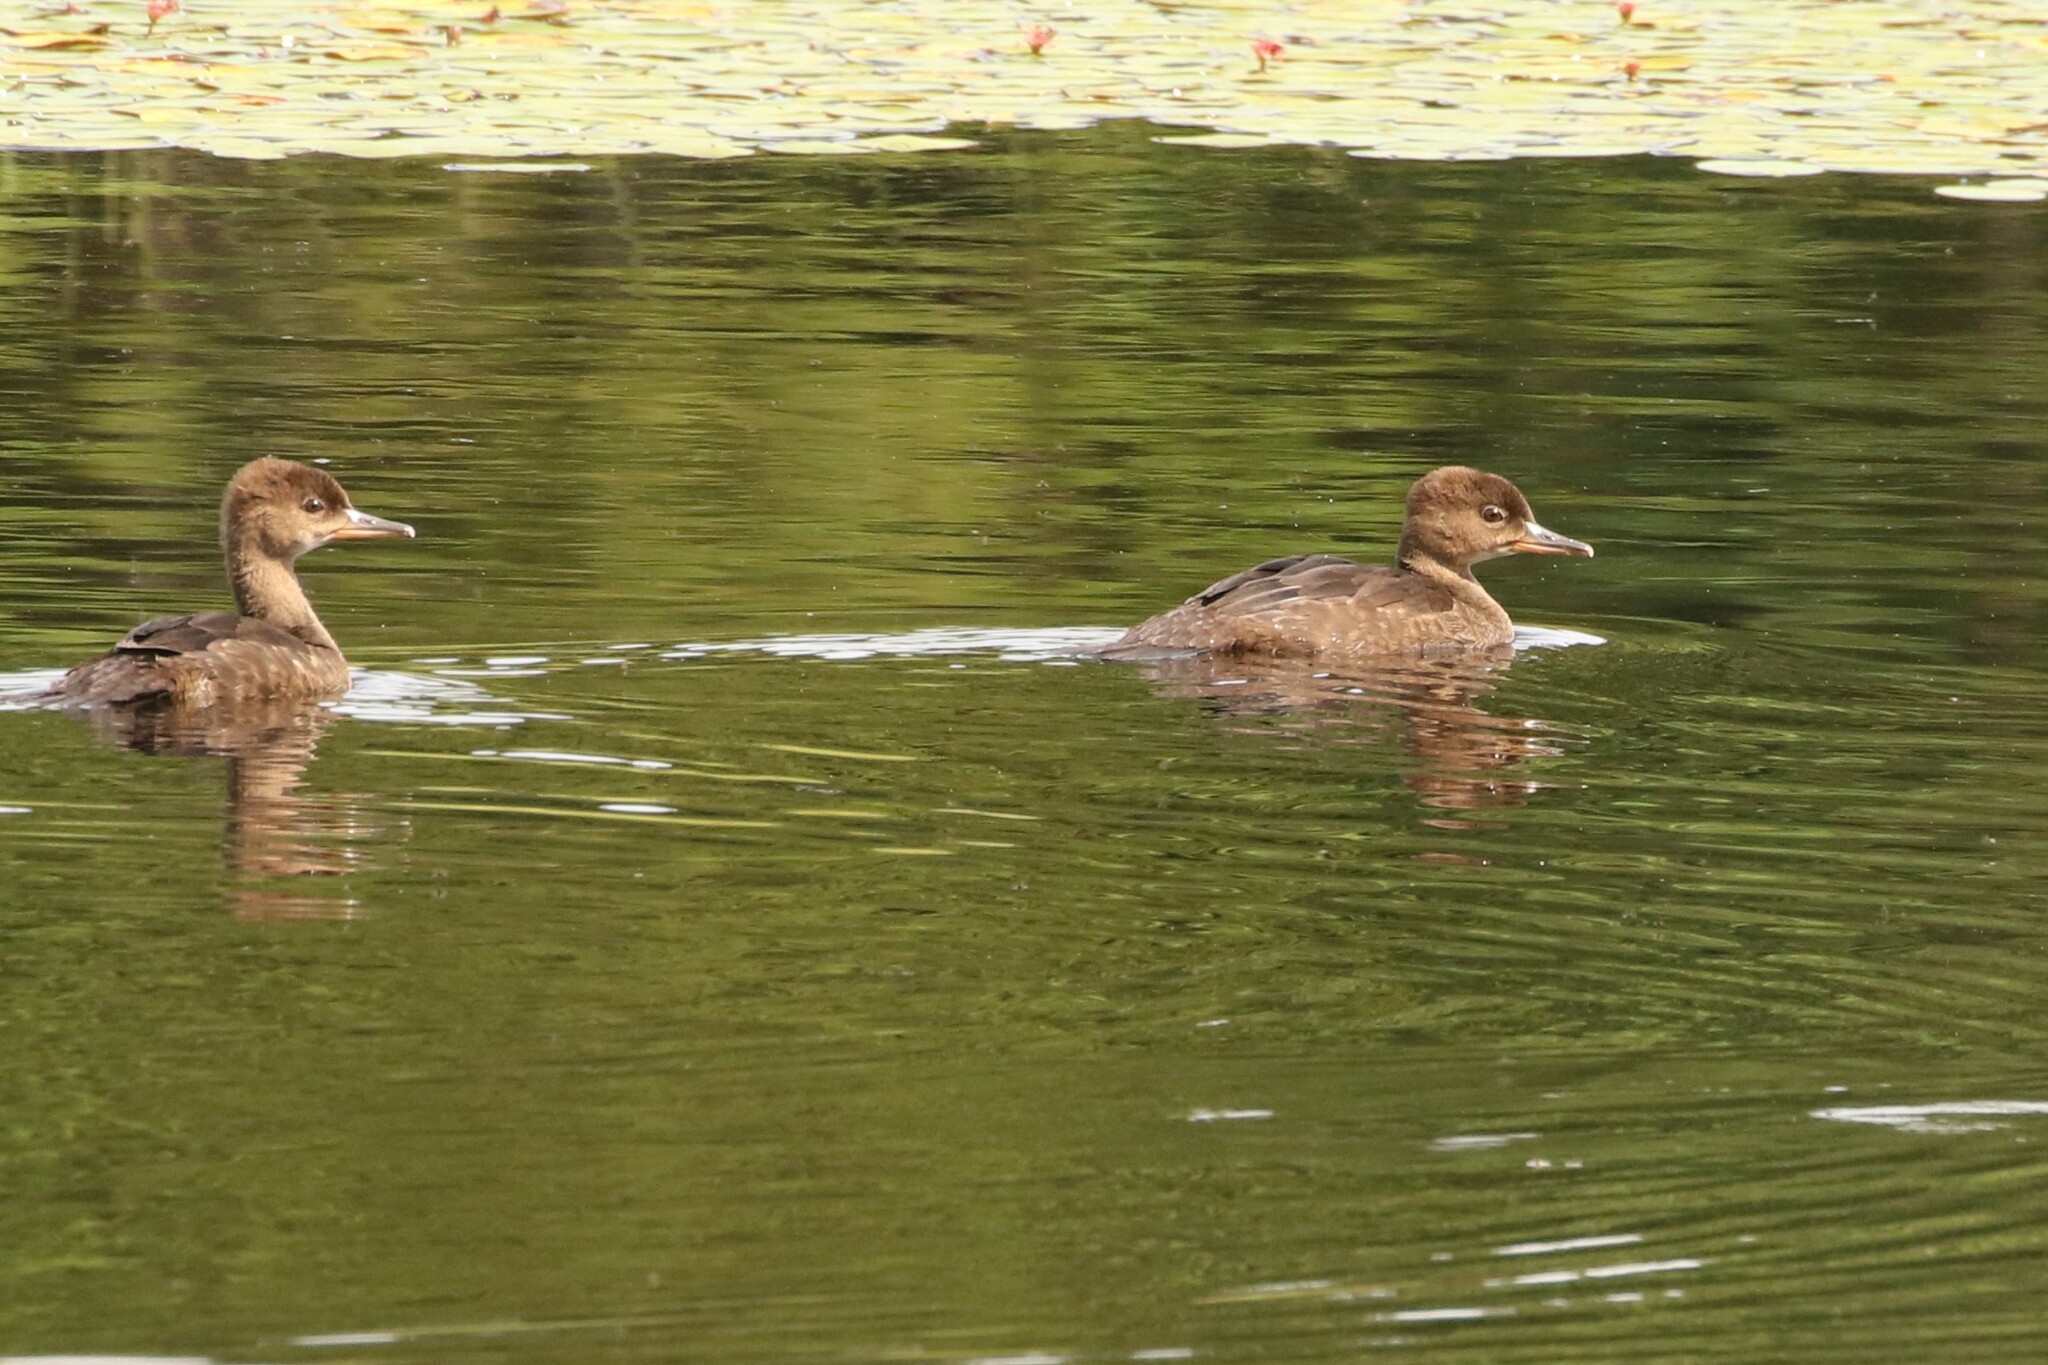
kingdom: Animalia
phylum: Chordata
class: Aves
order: Anseriformes
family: Anatidae
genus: Lophodytes
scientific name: Lophodytes cucullatus
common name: Hooded merganser
